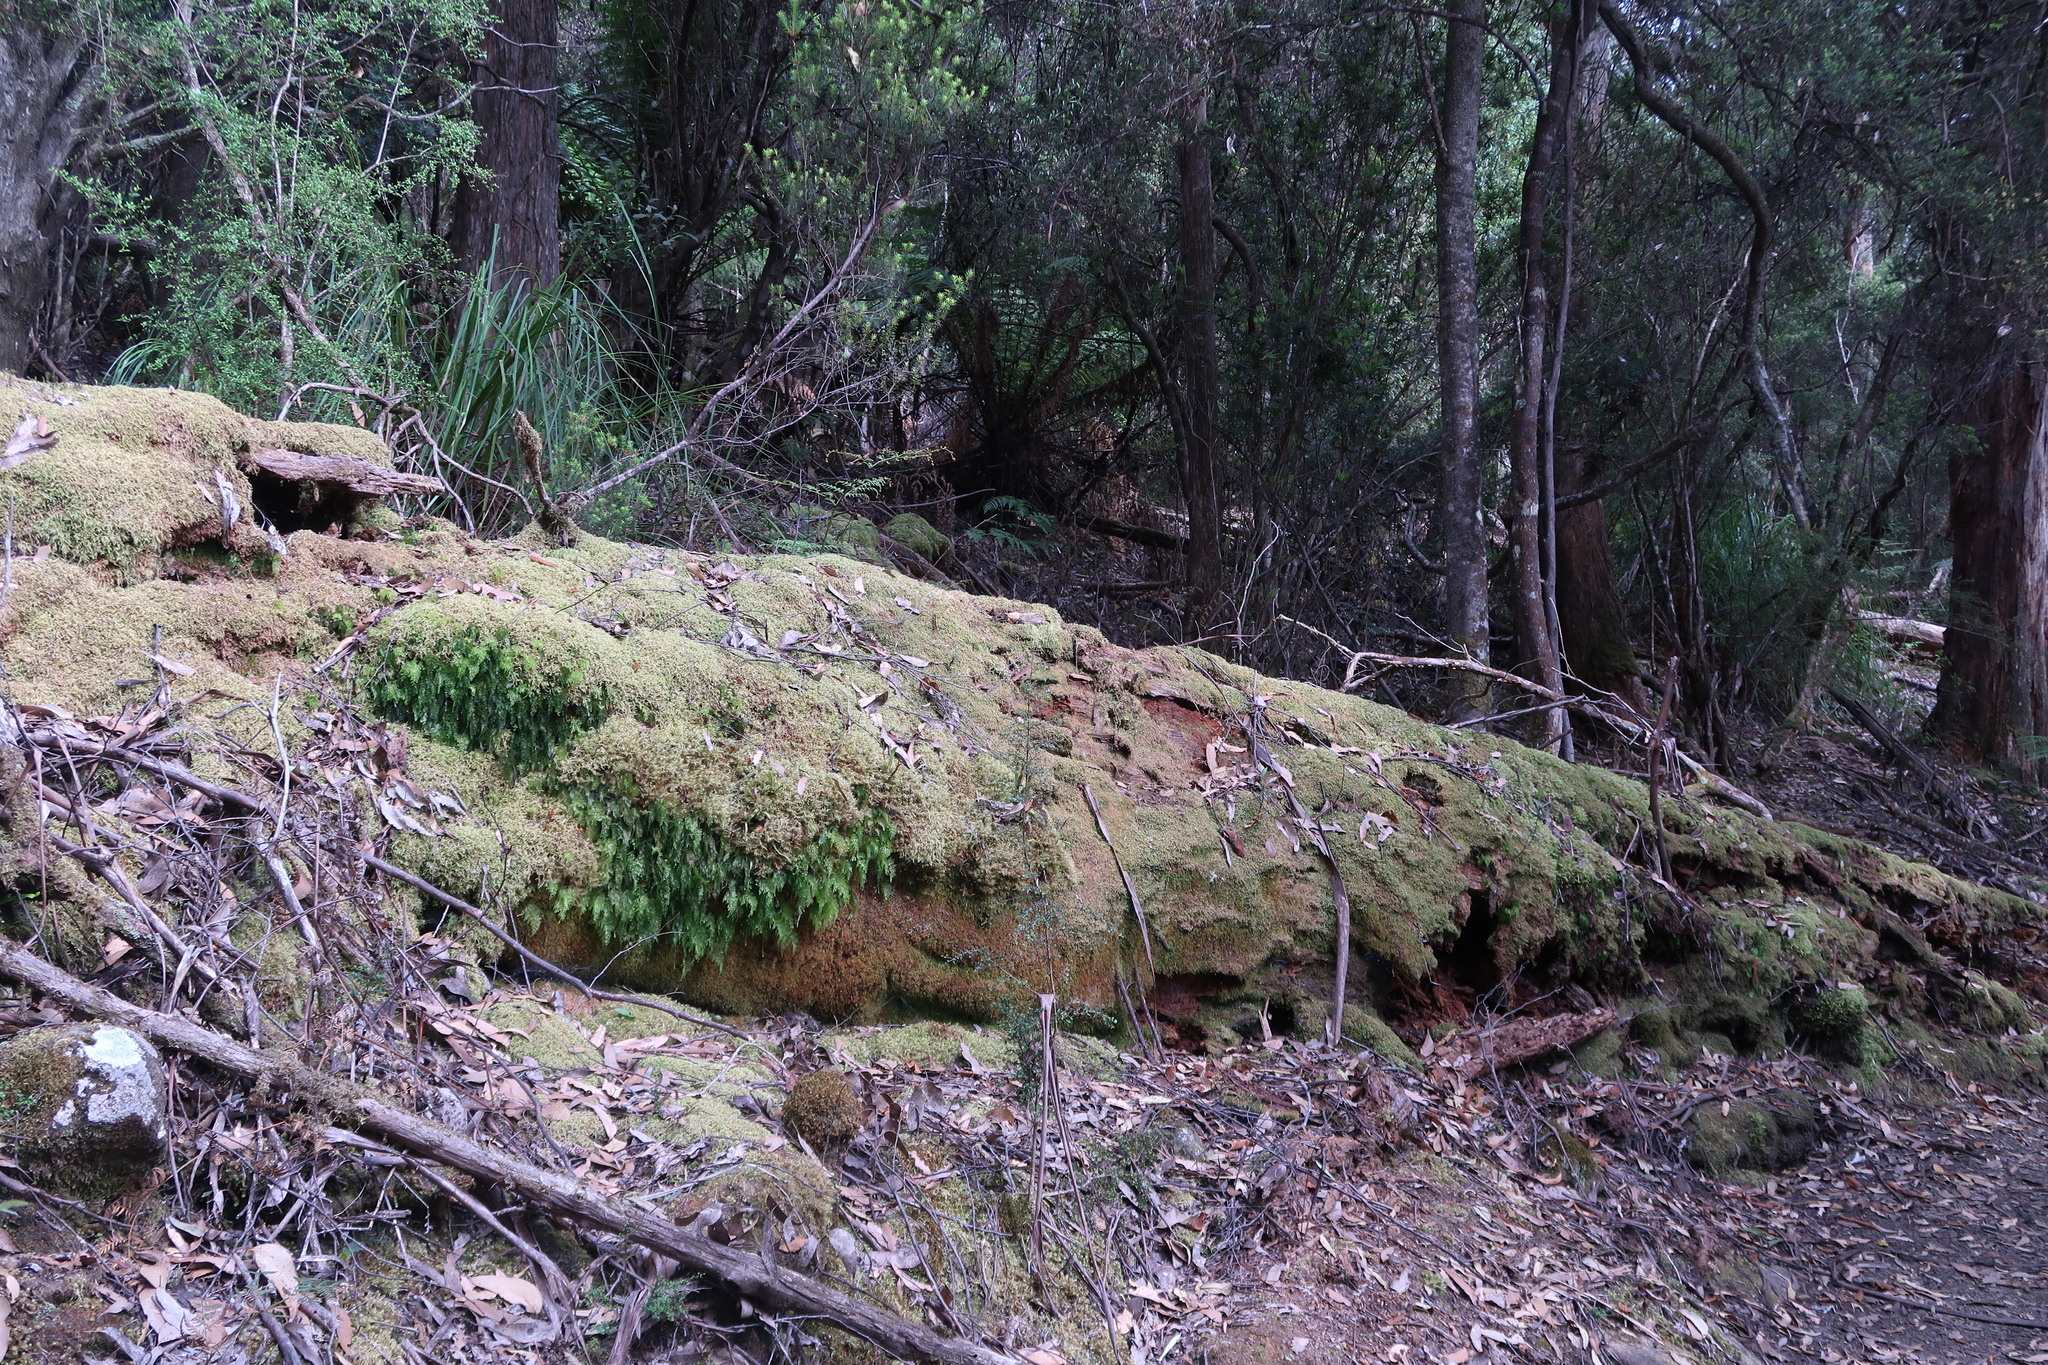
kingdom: Plantae
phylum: Tracheophyta
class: Polypodiopsida
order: Hymenophyllales
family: Hymenophyllaceae
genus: Hymenophyllum
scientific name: Hymenophyllum flabellatum
